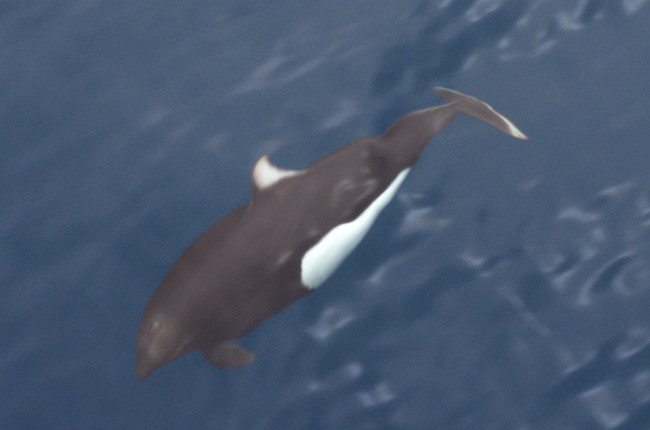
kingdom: Animalia
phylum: Chordata
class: Mammalia
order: Cetacea
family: Phocoenidae
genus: Phocoenoides
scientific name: Phocoenoides dalli
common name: Dall's porpoise
